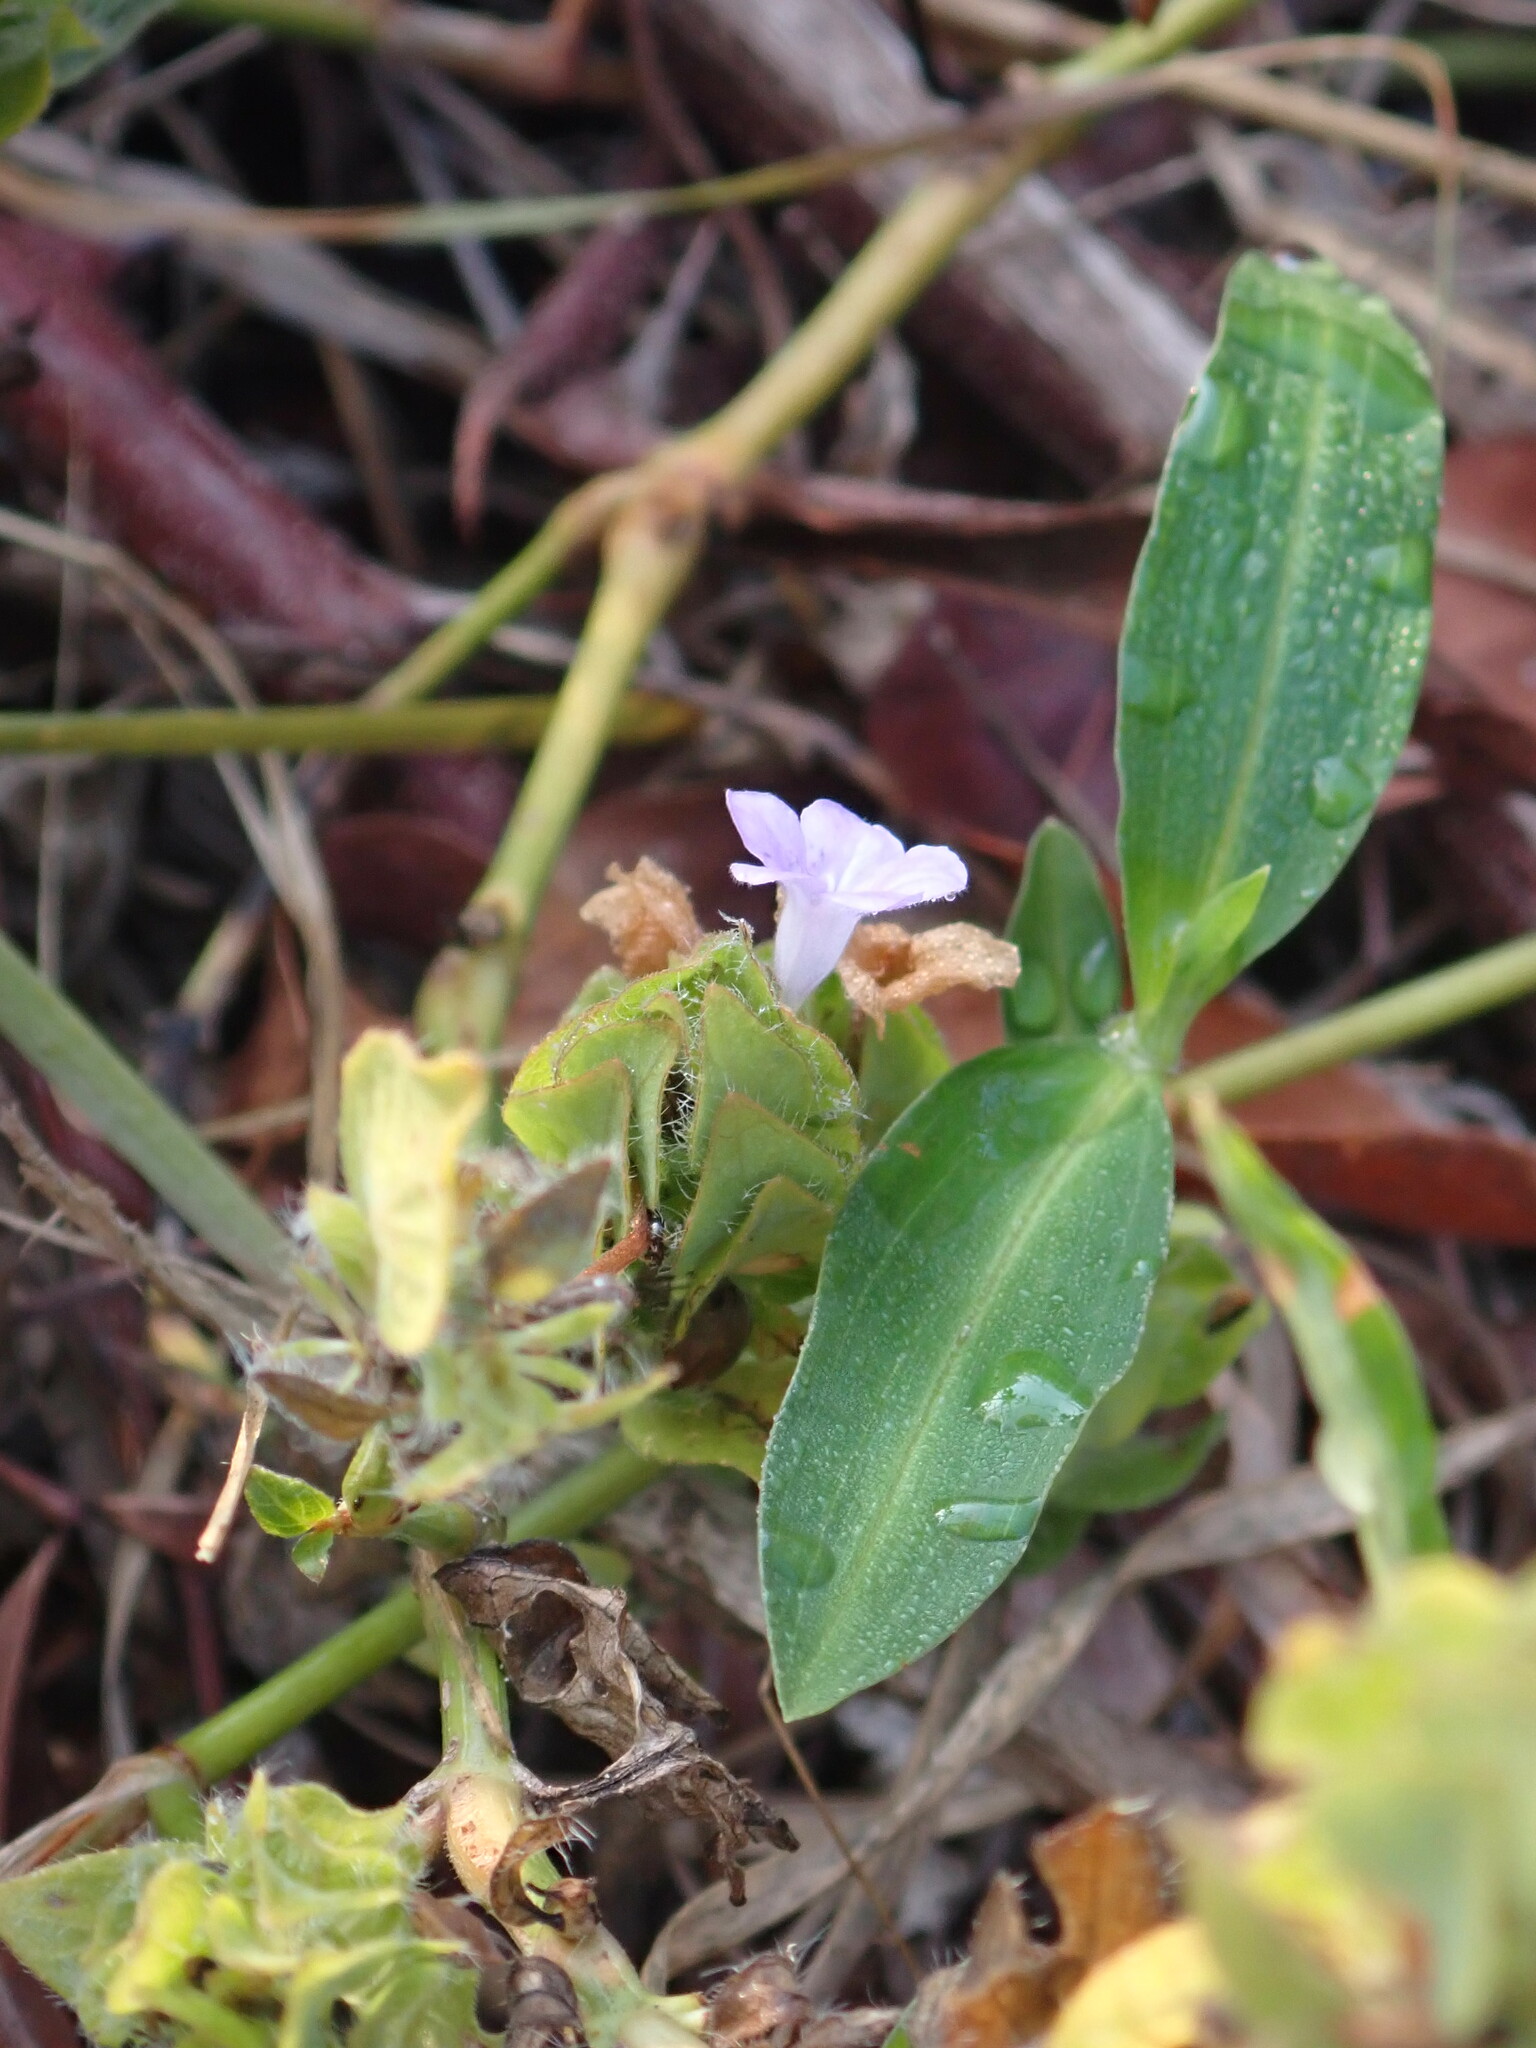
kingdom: Plantae
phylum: Tracheophyta
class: Magnoliopsida
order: Lamiales
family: Acanthaceae
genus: Ruellia
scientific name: Ruellia blechum
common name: Browne's blechum
